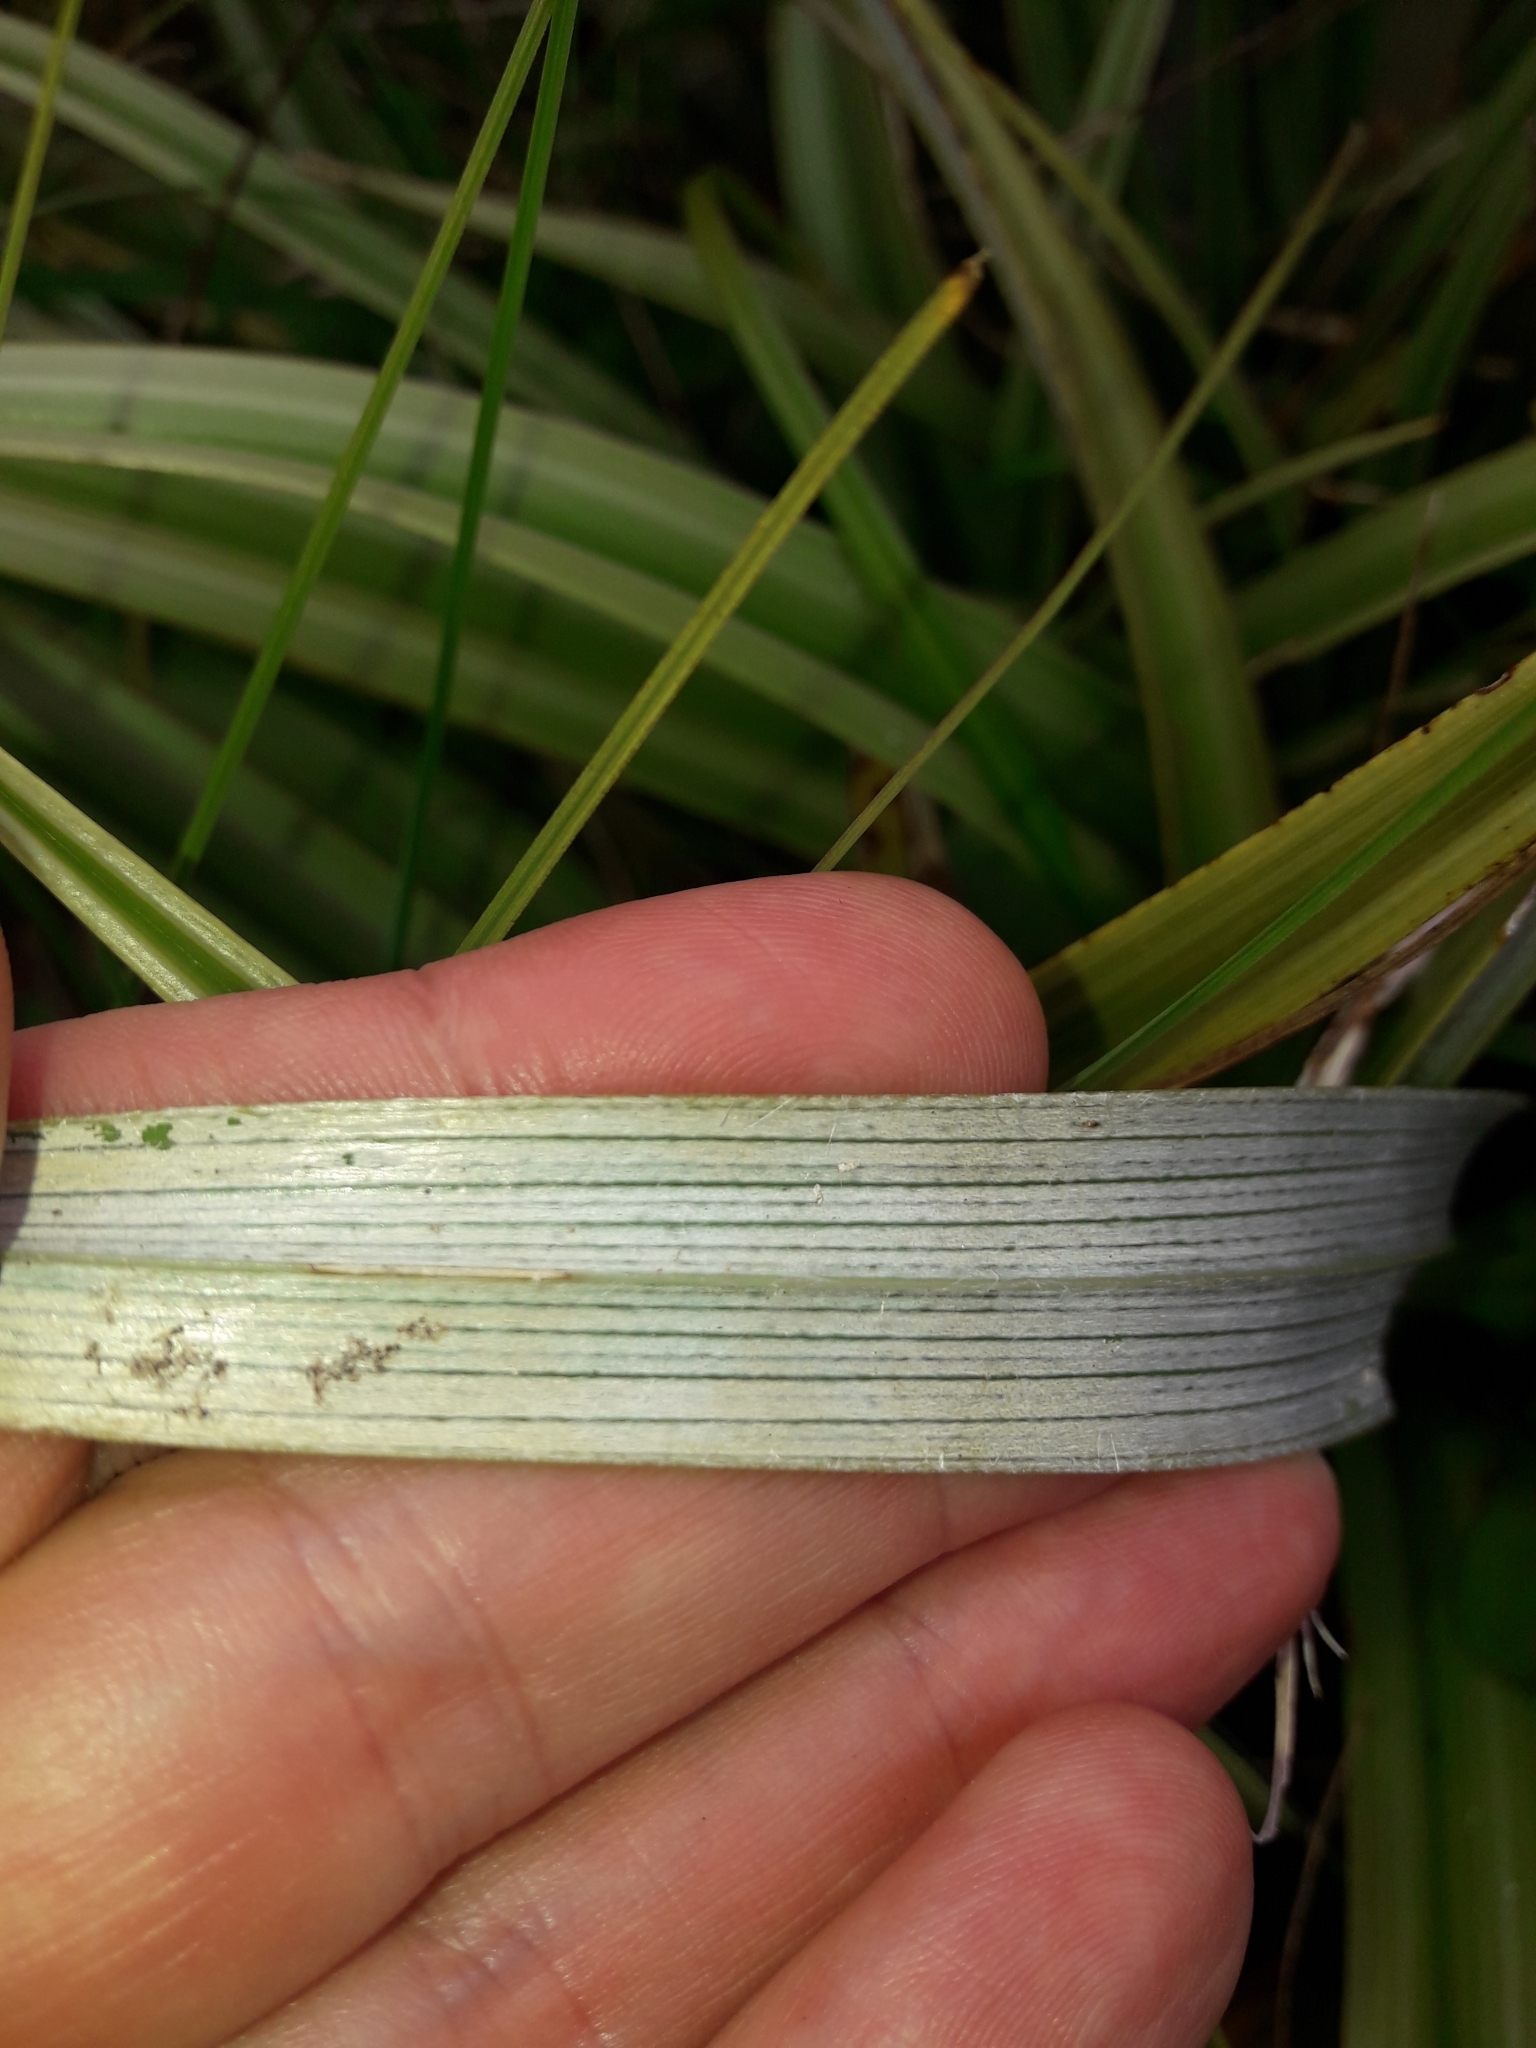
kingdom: Plantae
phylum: Tracheophyta
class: Liliopsida
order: Asparagales
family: Asteliaceae
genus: Astelia
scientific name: Astelia petriei
